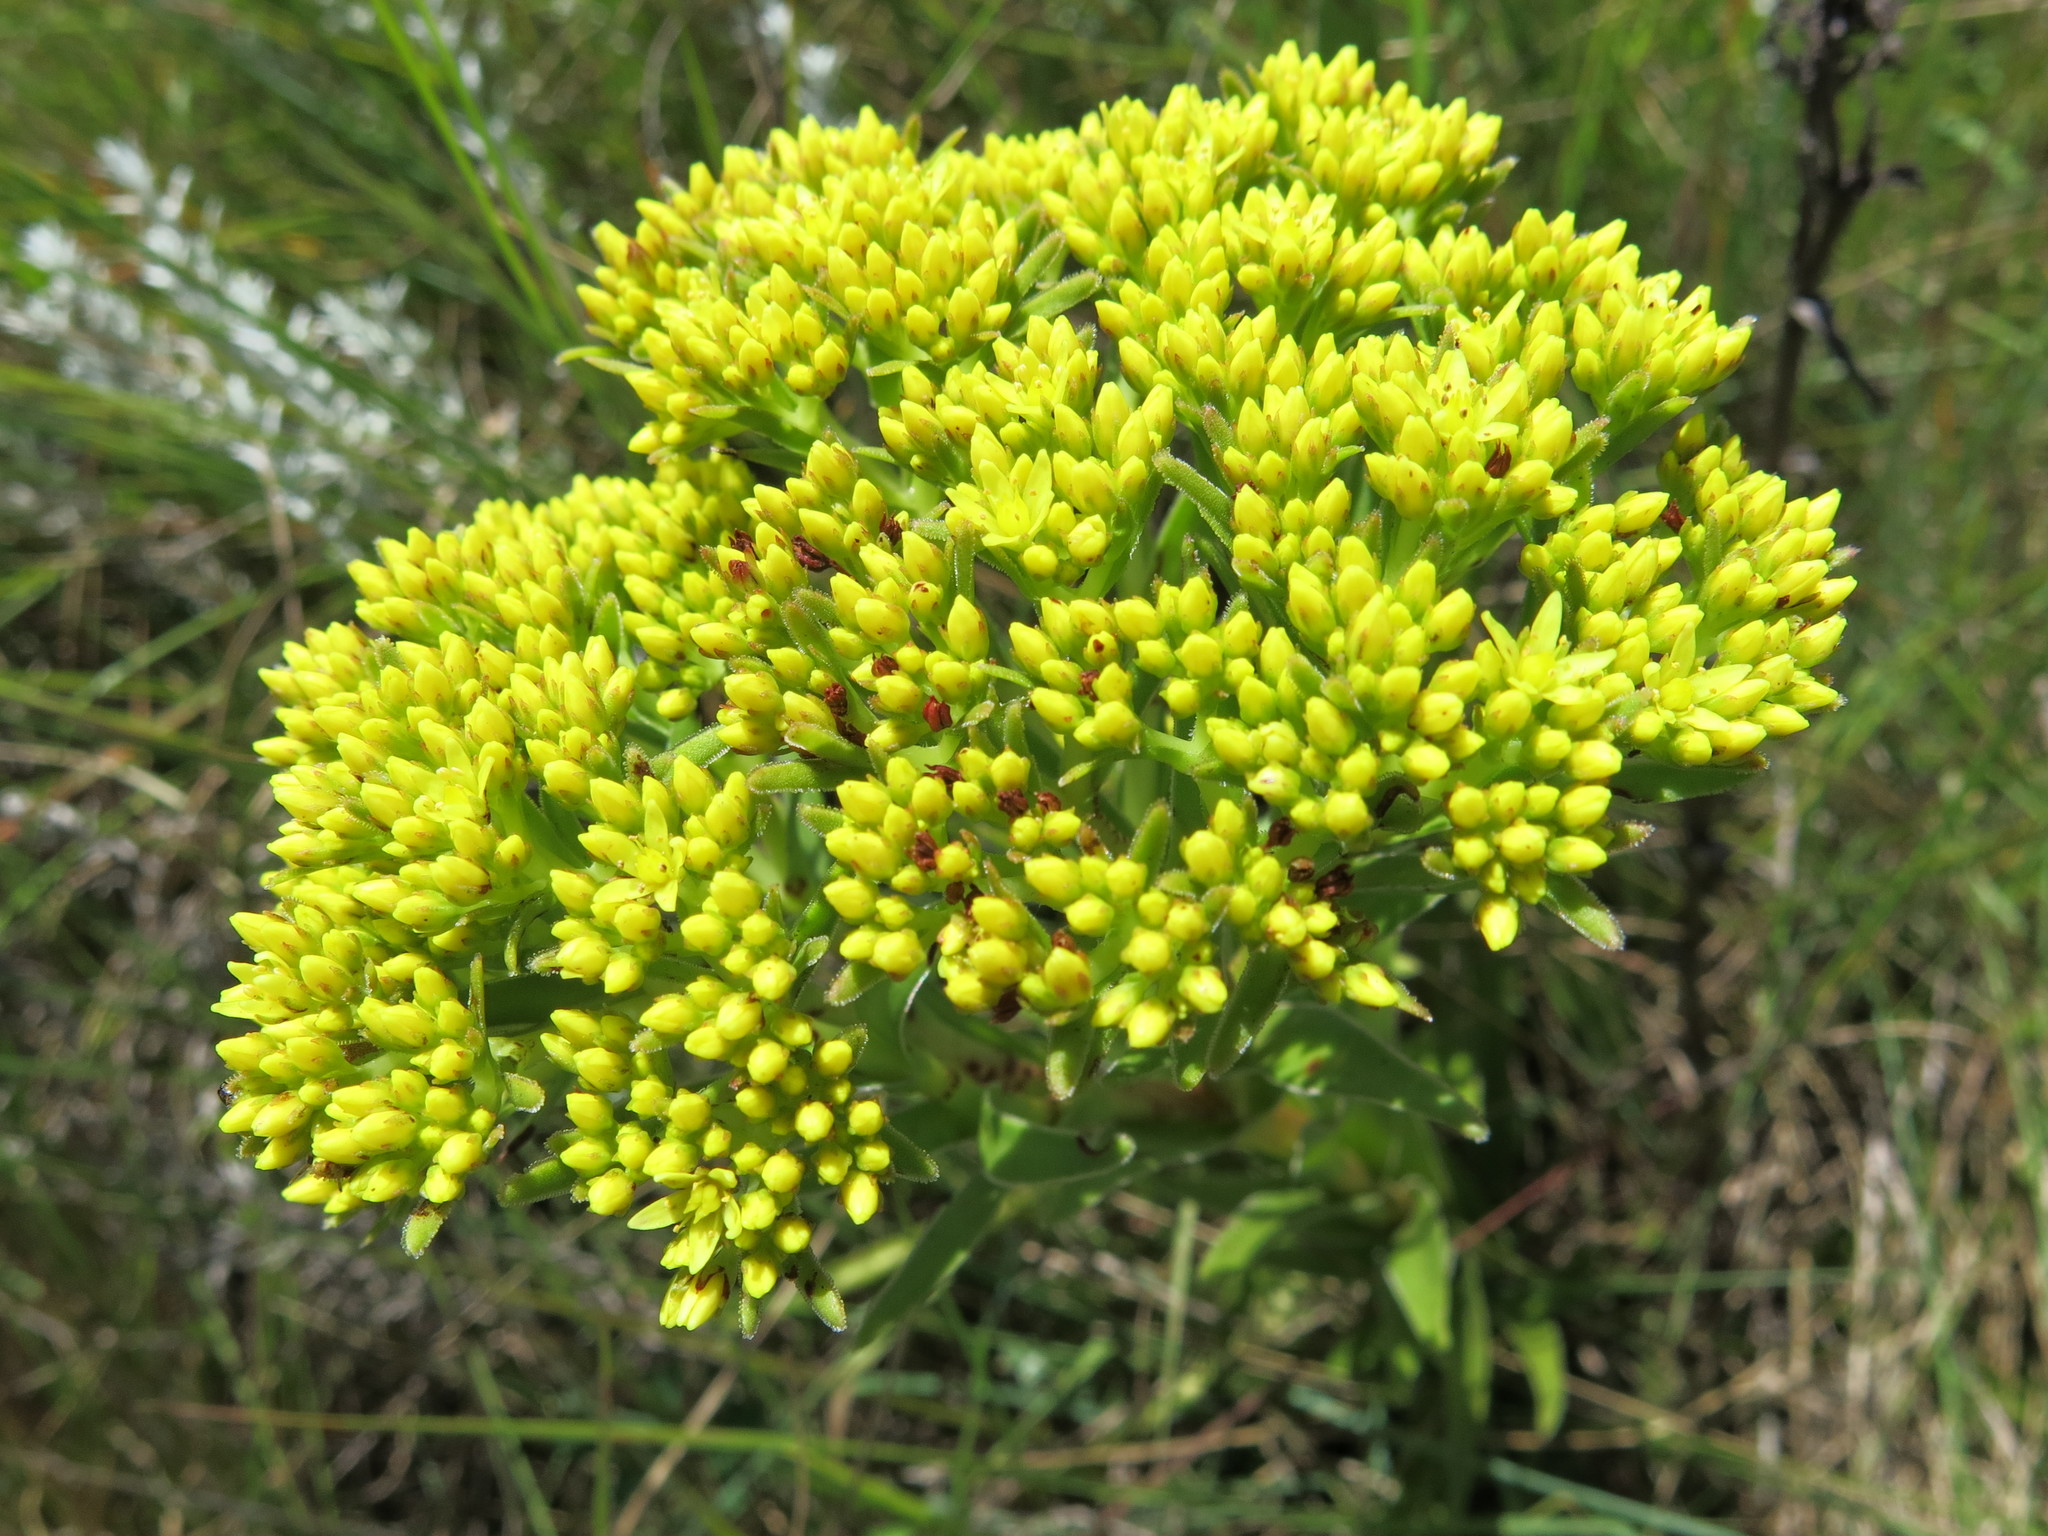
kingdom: Plantae
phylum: Tracheophyta
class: Magnoliopsida
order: Saxifragales
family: Crassulaceae
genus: Crassula
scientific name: Crassula vaginata
